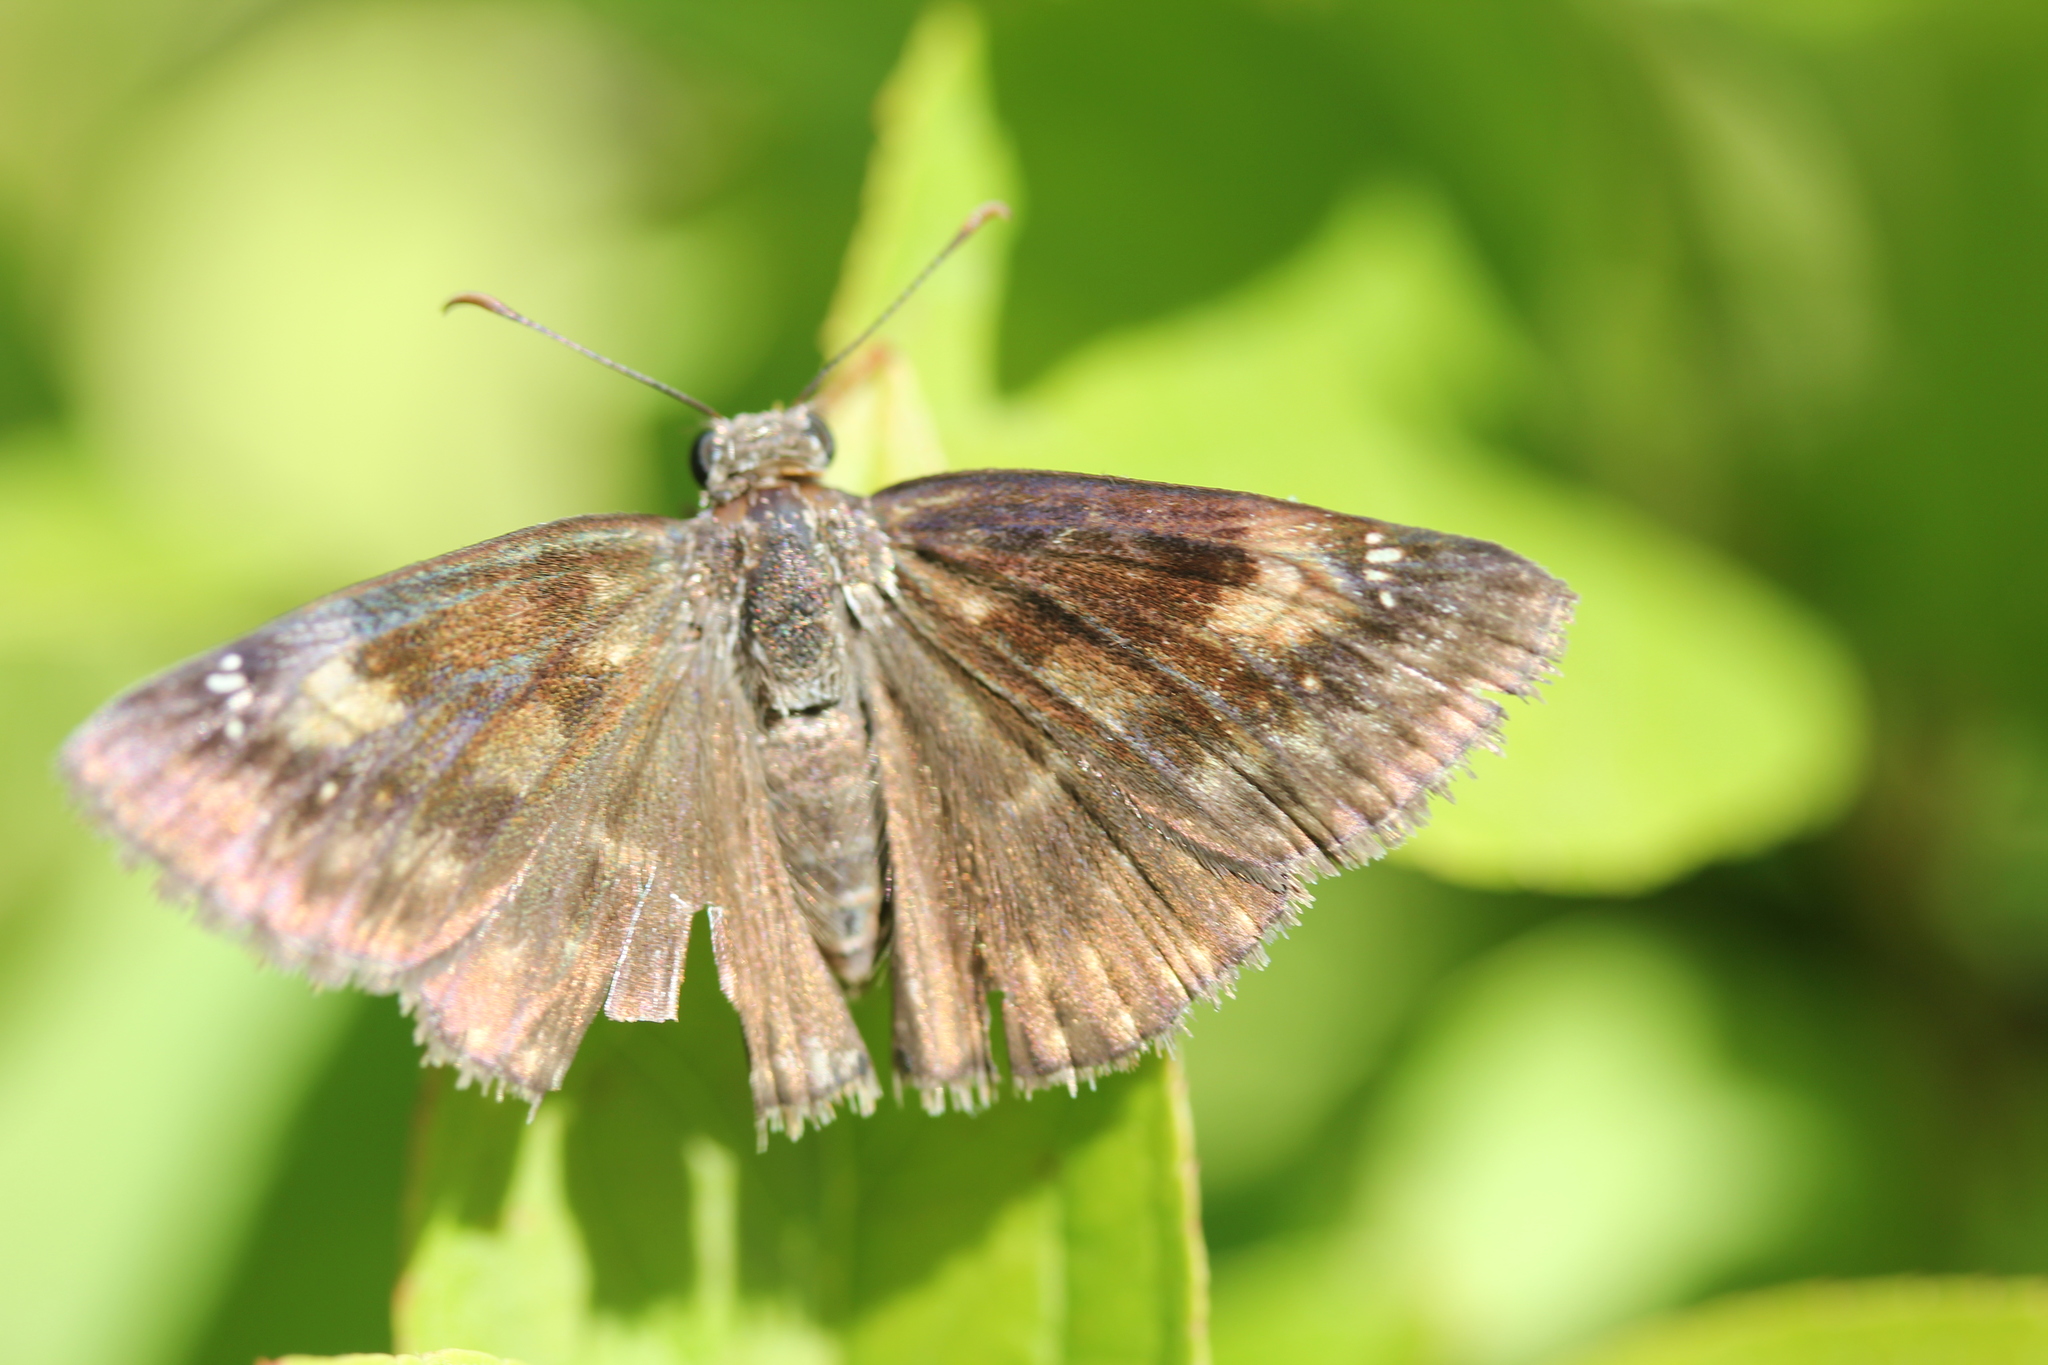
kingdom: Animalia
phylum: Arthropoda
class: Insecta
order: Lepidoptera
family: Hesperiidae
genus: Erynnis
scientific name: Erynnis baptisiae
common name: Wild indigo duskywing
